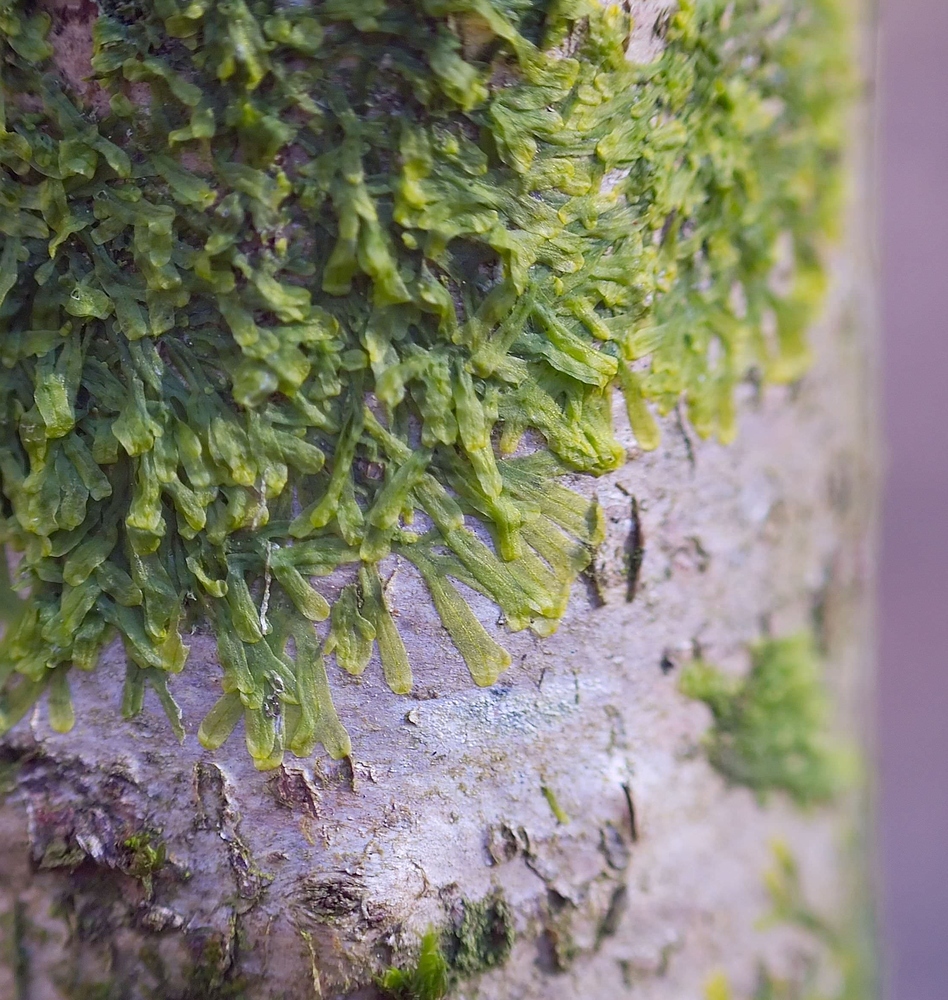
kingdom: Plantae
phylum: Marchantiophyta
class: Jungermanniopsida
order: Metzgeriales
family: Metzgeriaceae
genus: Metzgeria
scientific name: Metzgeria furcata
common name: Forked veilwort
